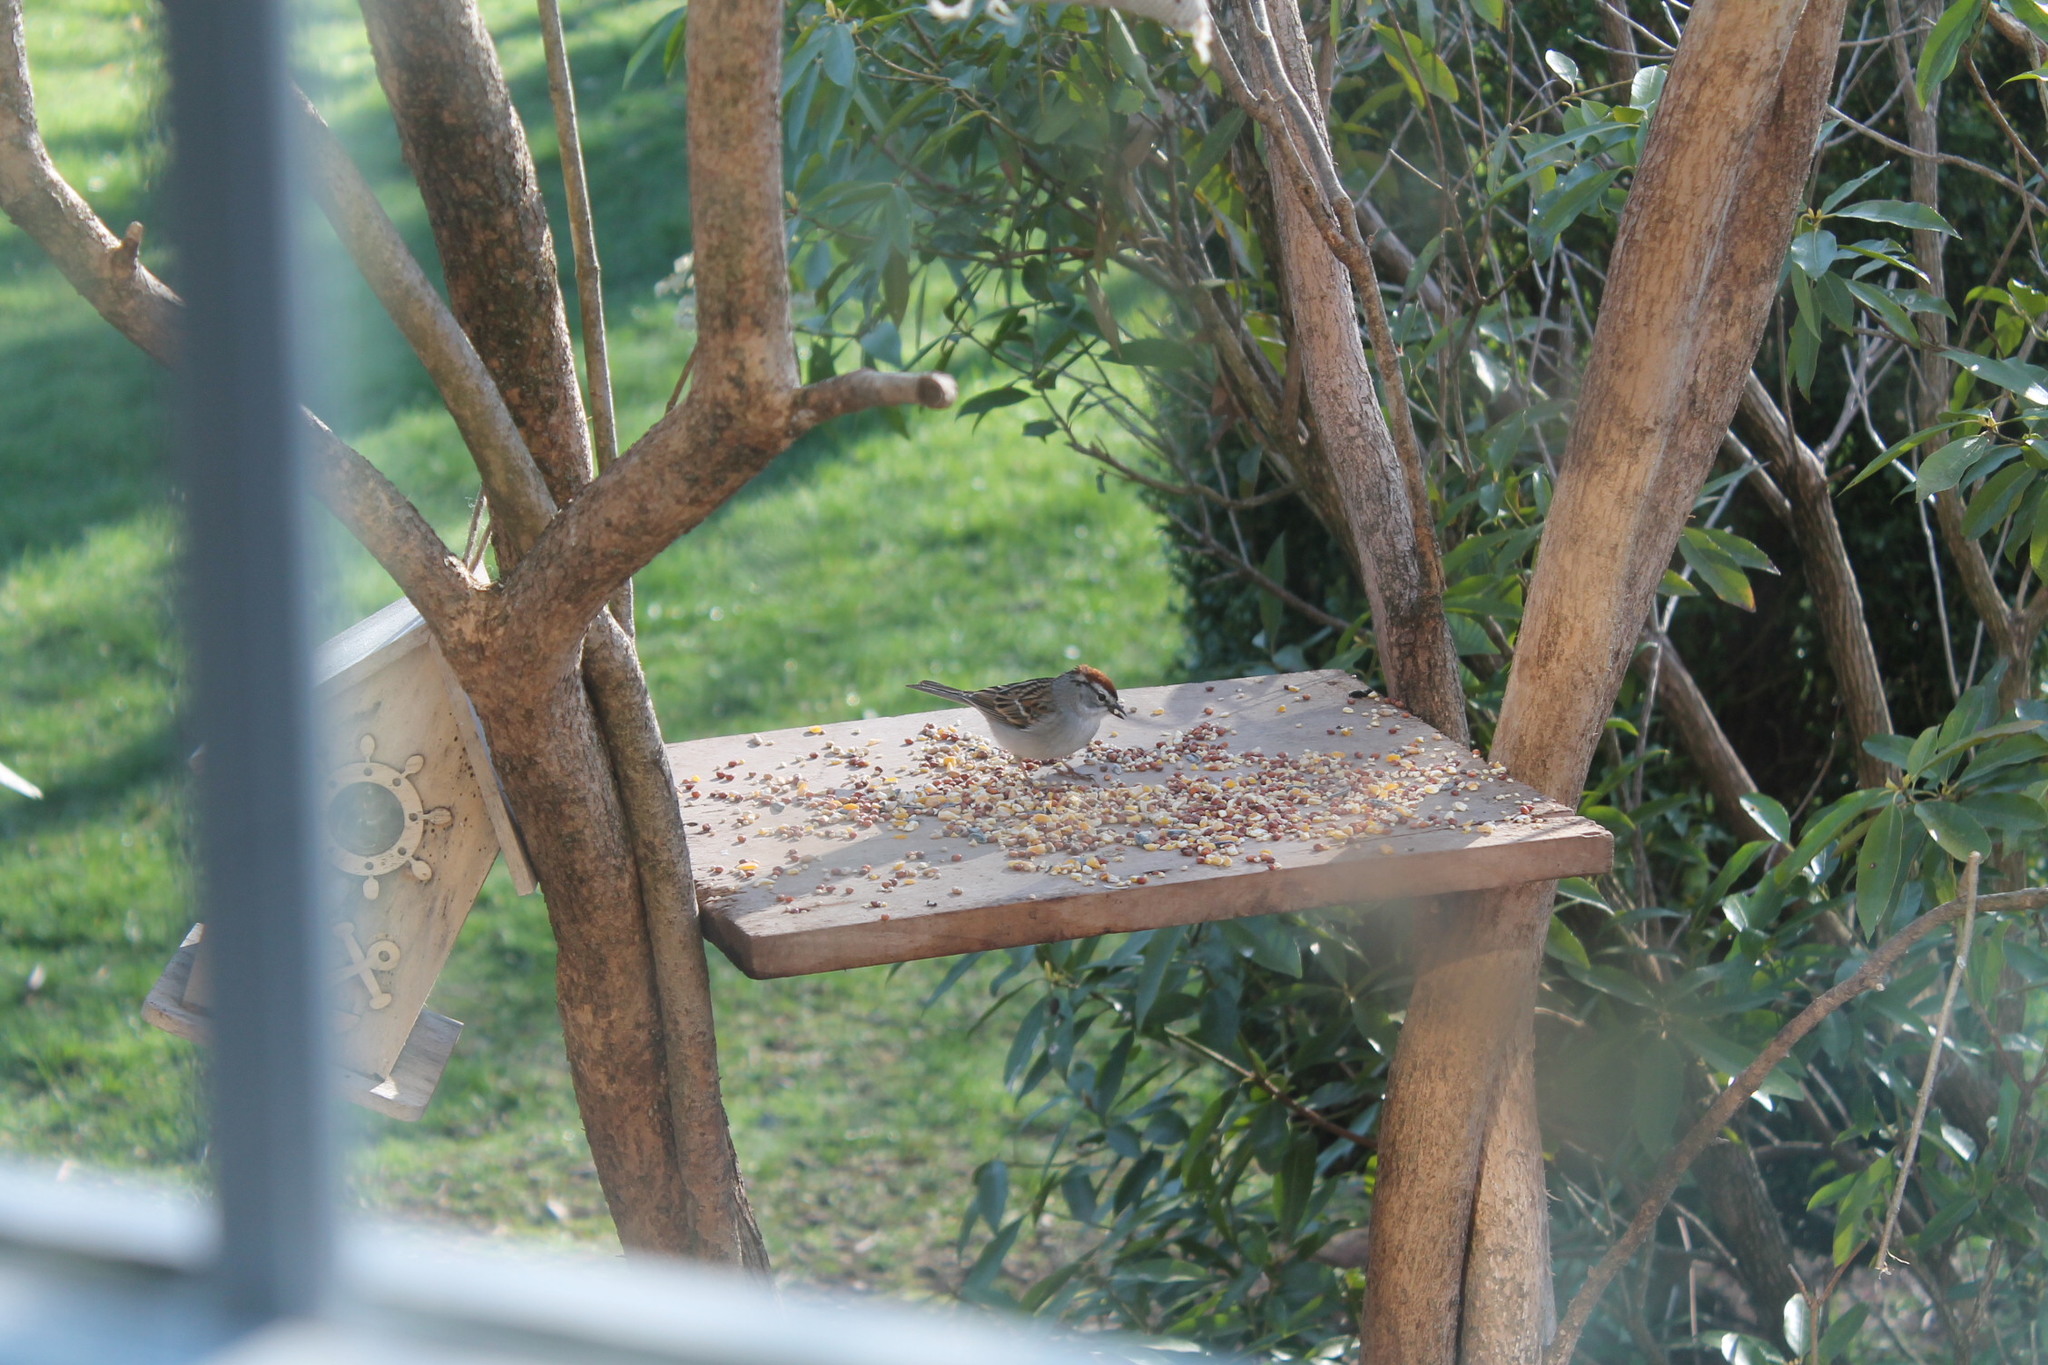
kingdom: Animalia
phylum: Chordata
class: Aves
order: Passeriformes
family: Passerellidae
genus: Spizella
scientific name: Spizella passerina
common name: Chipping sparrow
